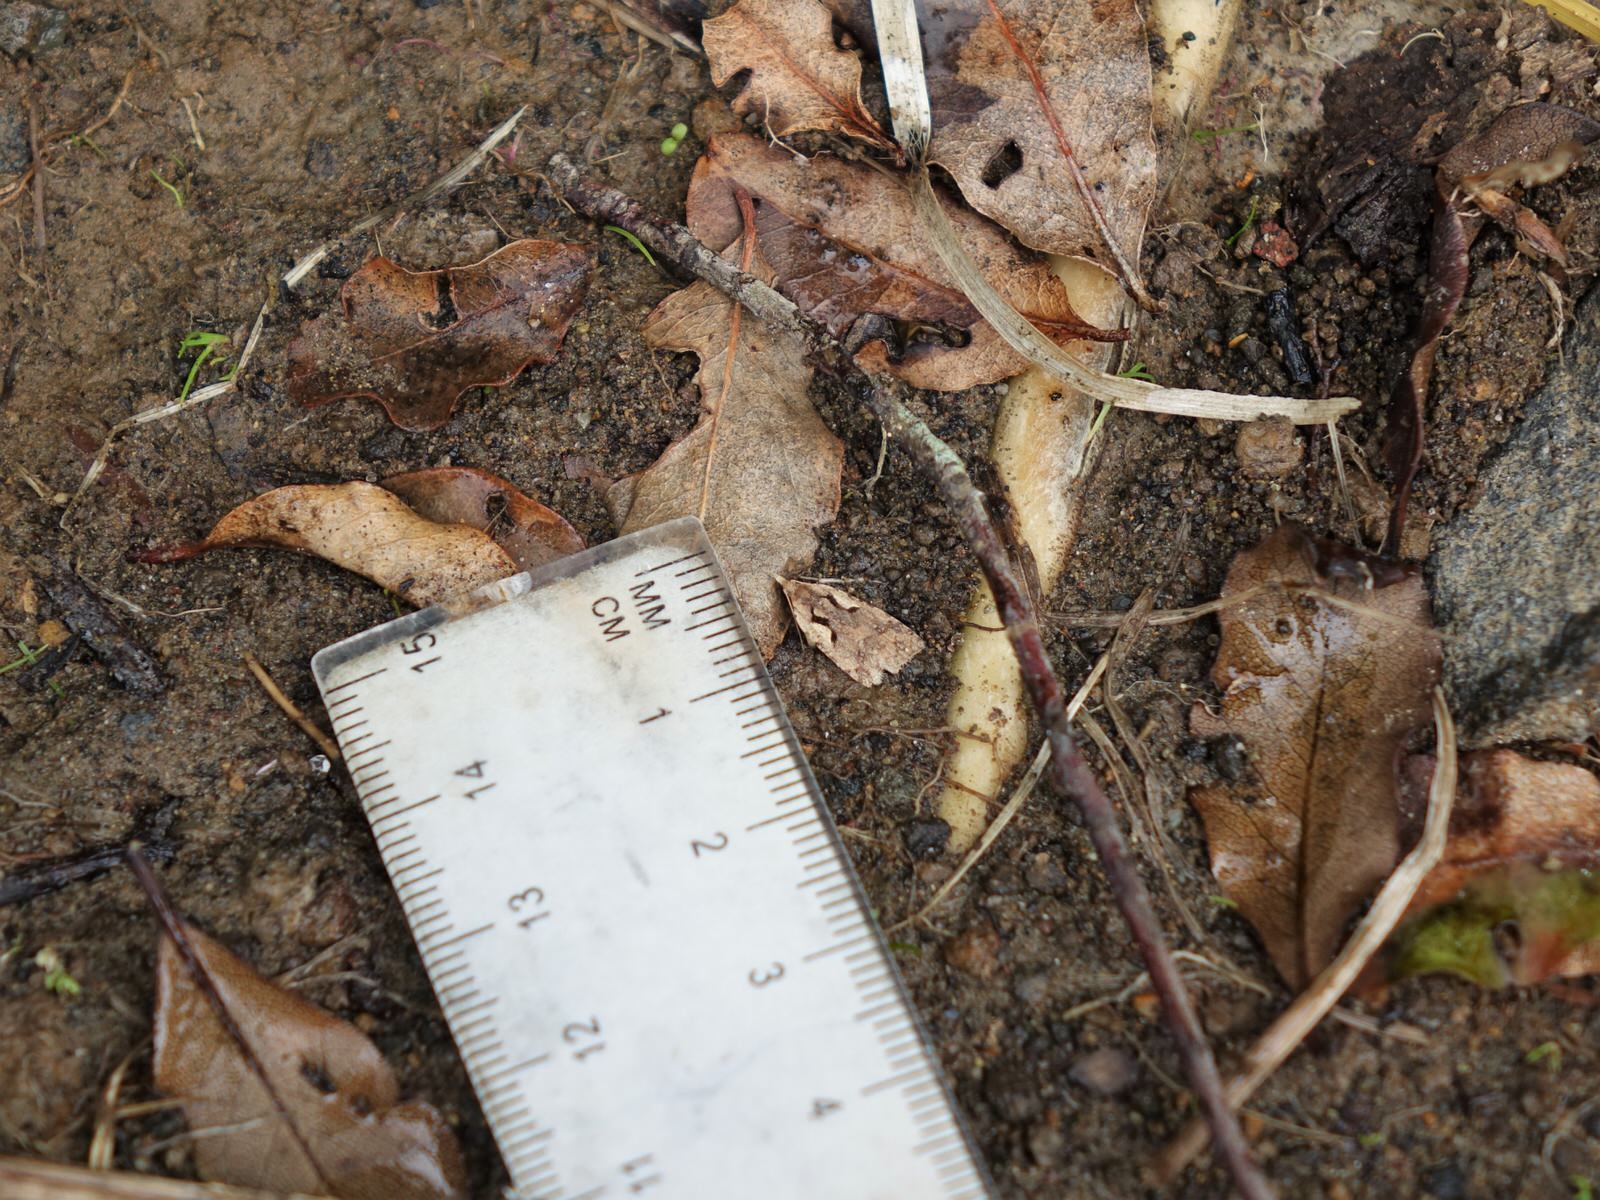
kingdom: Animalia
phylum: Arthropoda
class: Insecta
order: Lepidoptera
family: Tortricidae
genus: Cnephasia
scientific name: Cnephasia jactatana
